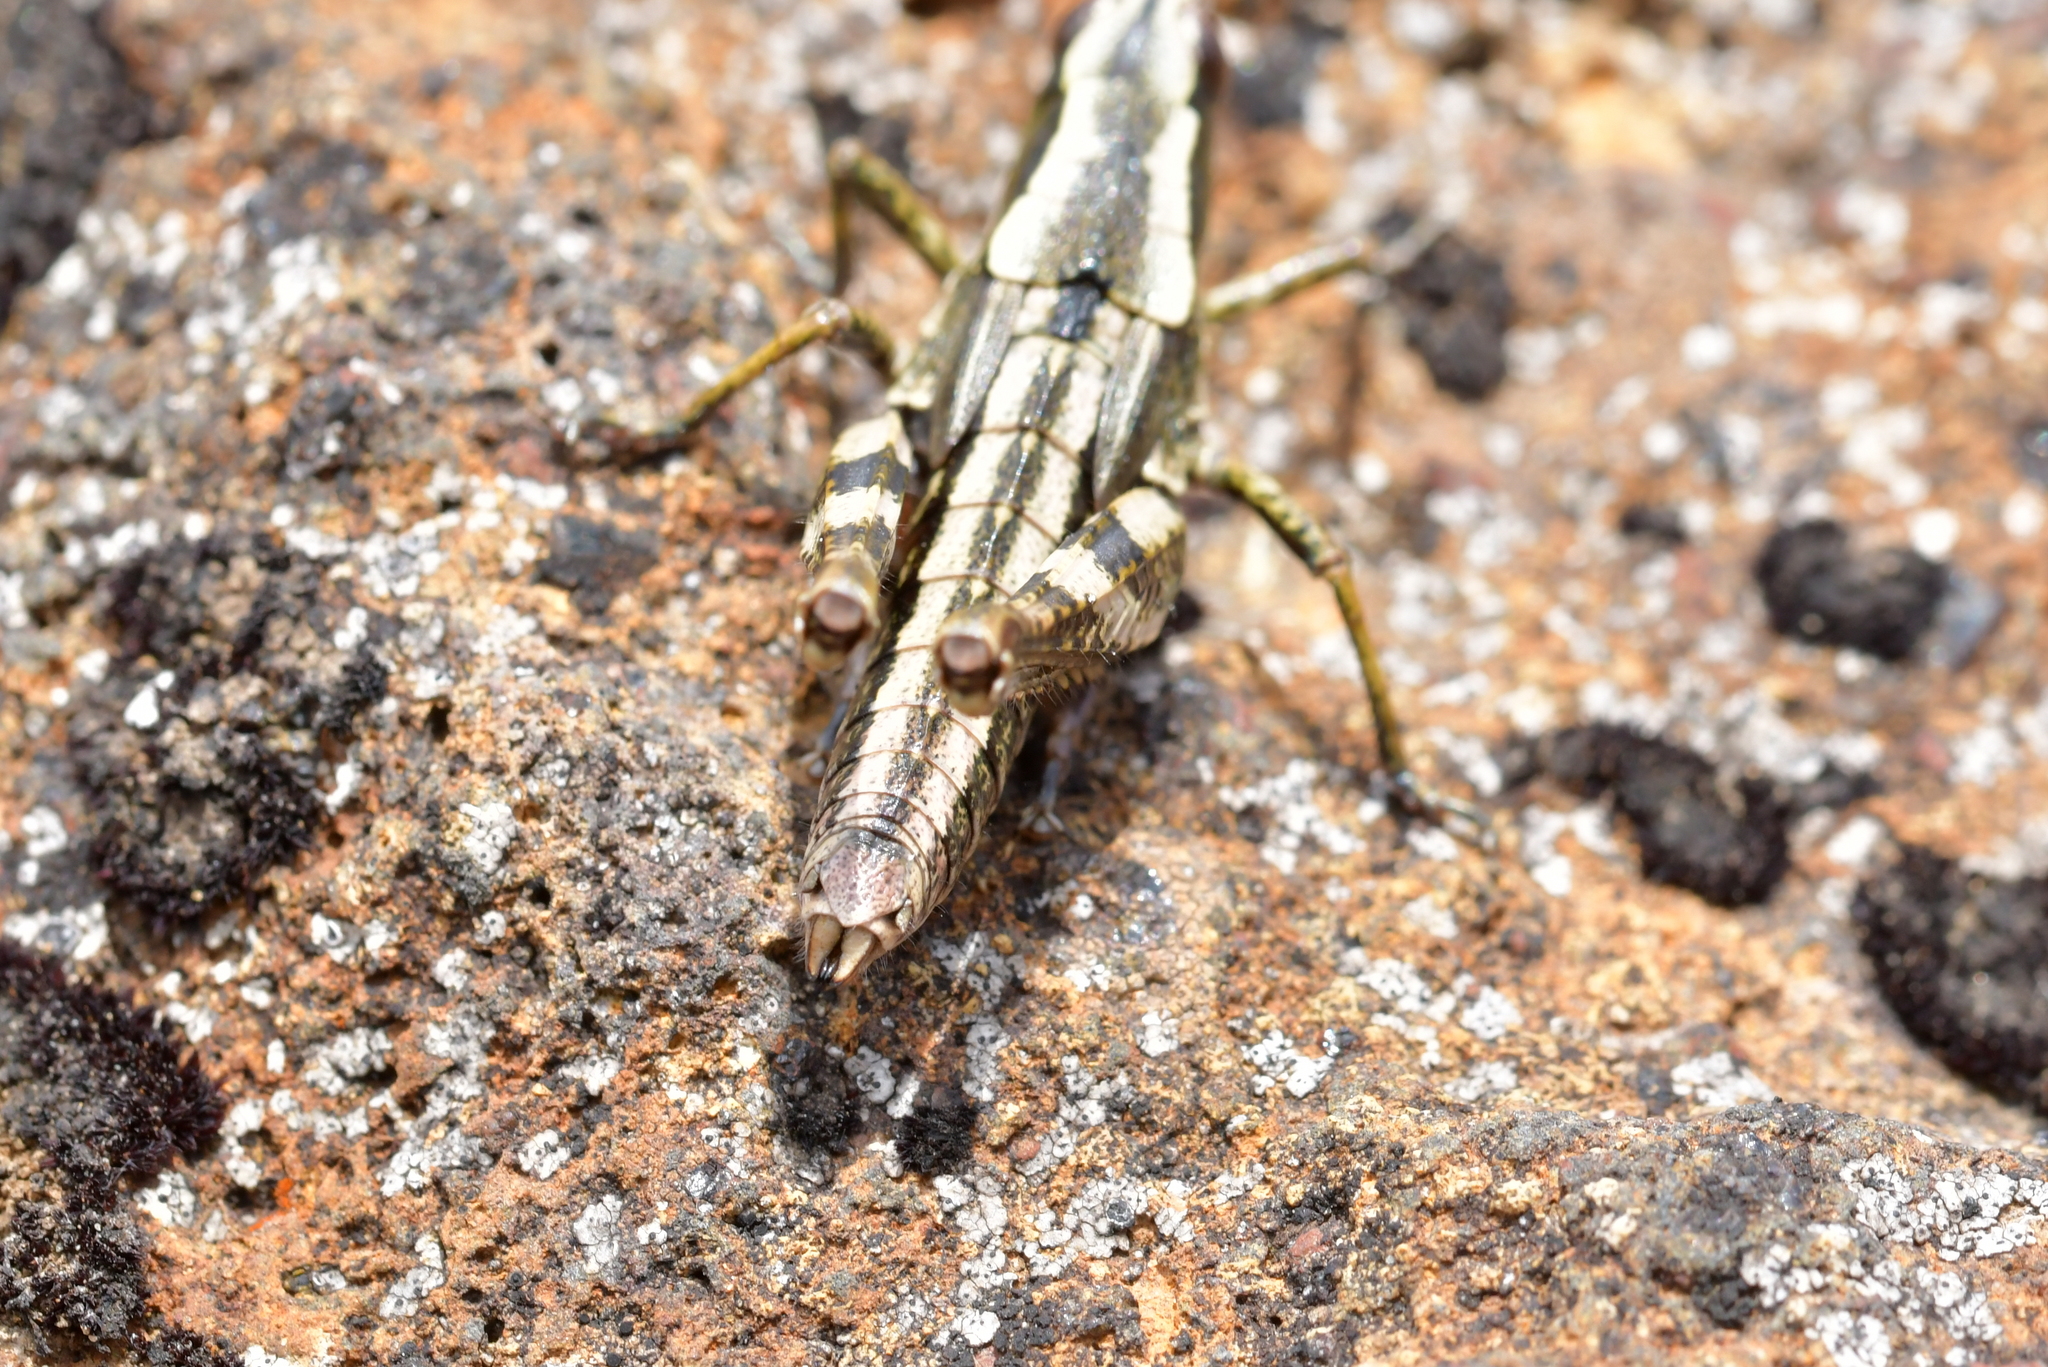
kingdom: Animalia
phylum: Arthropoda
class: Insecta
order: Orthoptera
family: Acrididae
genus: Sigaus
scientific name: Sigaus piliferus
